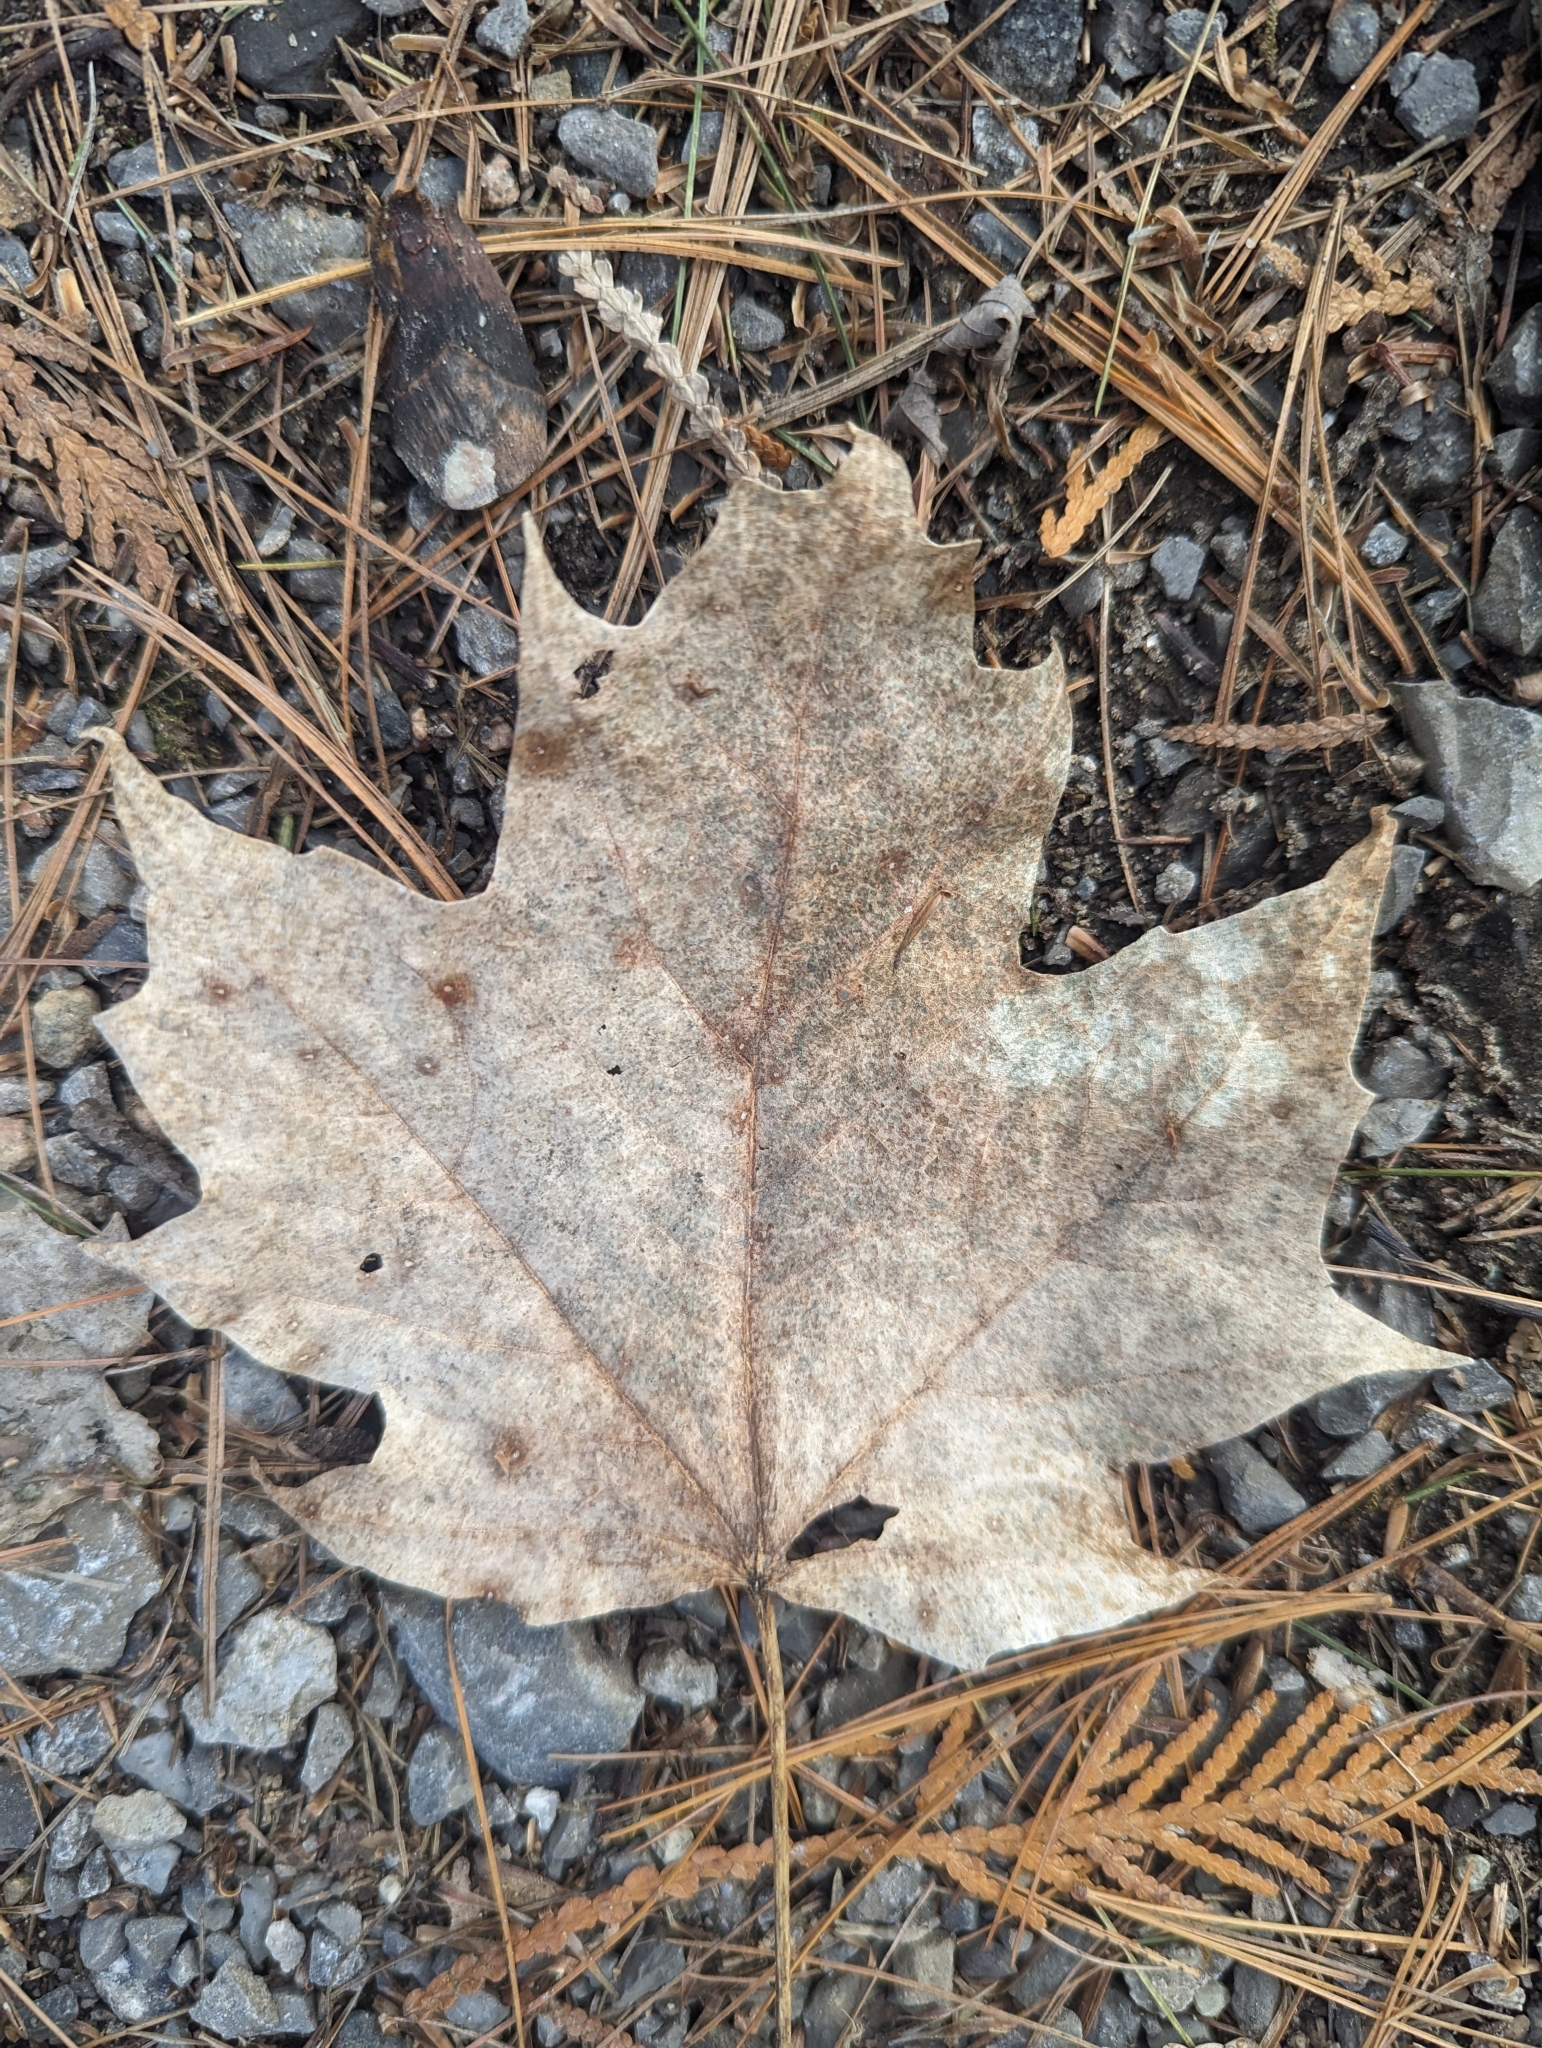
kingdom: Plantae
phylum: Tracheophyta
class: Magnoliopsida
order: Sapindales
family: Sapindaceae
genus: Acer
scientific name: Acer saccharum
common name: Sugar maple
